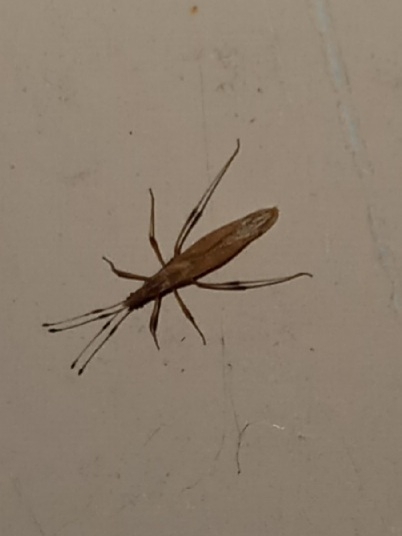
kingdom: Animalia
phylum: Arthropoda
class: Insecta
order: Hemiptera
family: Berytidae
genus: Berytinus
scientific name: Berytinus minor
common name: Stilt bug
